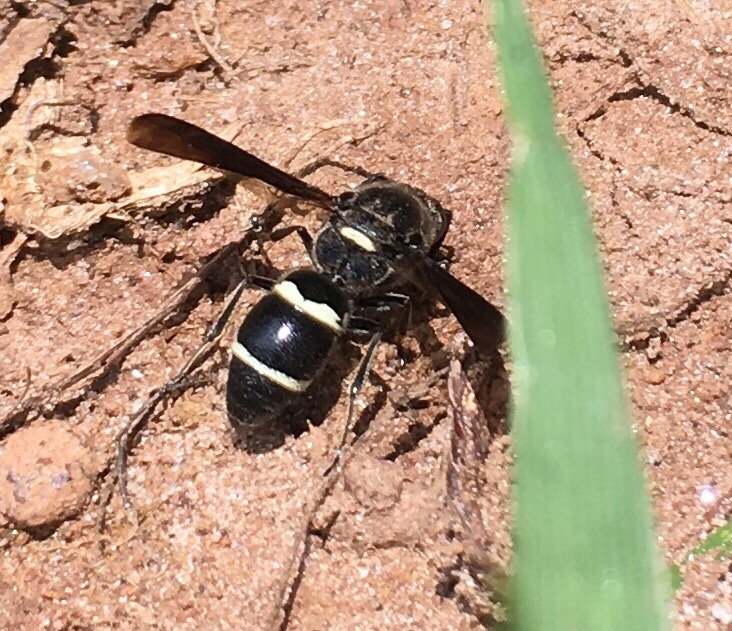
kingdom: Animalia
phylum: Arthropoda
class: Insecta
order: Hymenoptera
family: Eumenidae
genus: Euodynerus
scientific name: Euodynerus megaera
